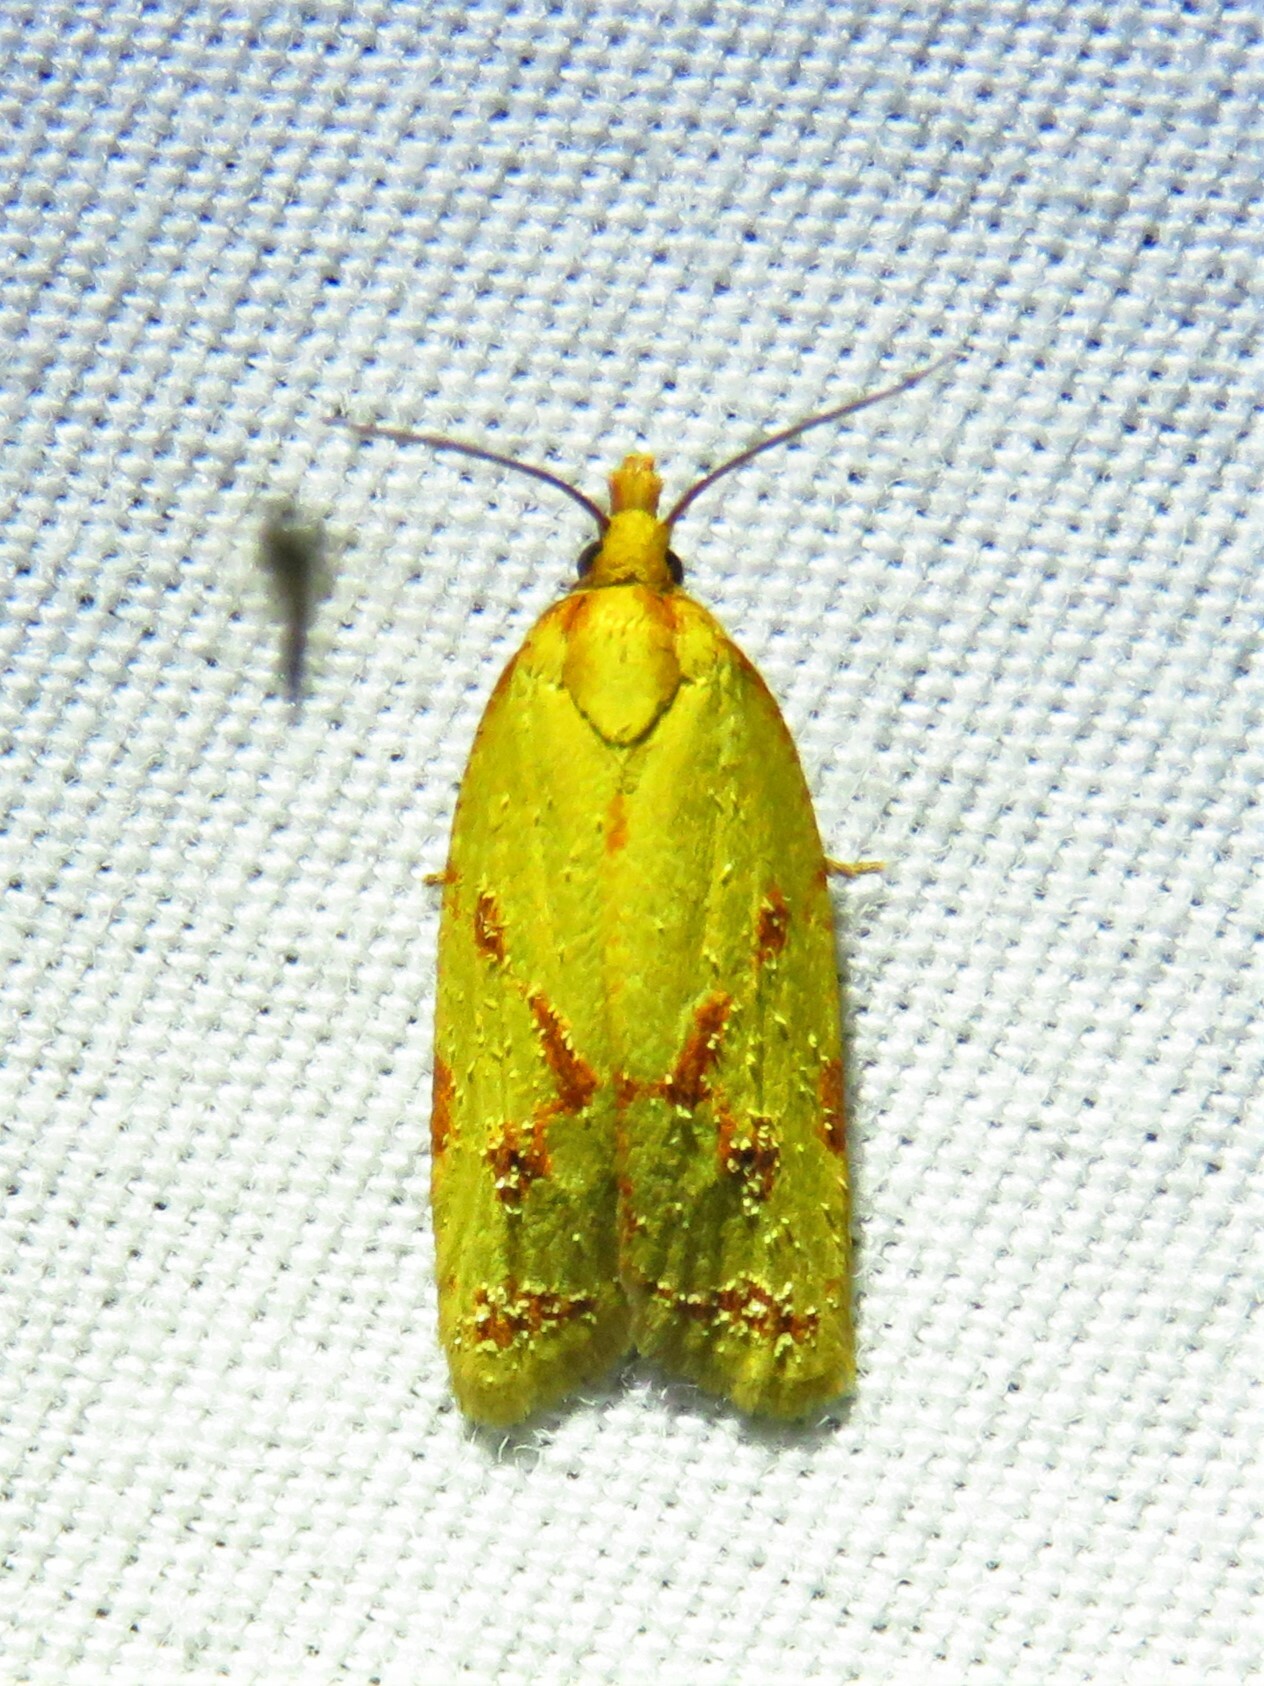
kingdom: Animalia
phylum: Arthropoda
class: Insecta
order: Lepidoptera
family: Tortricidae
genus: Sparganothis
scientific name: Sparganothis sulfureana
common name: Sparganothis fruitworm moth
